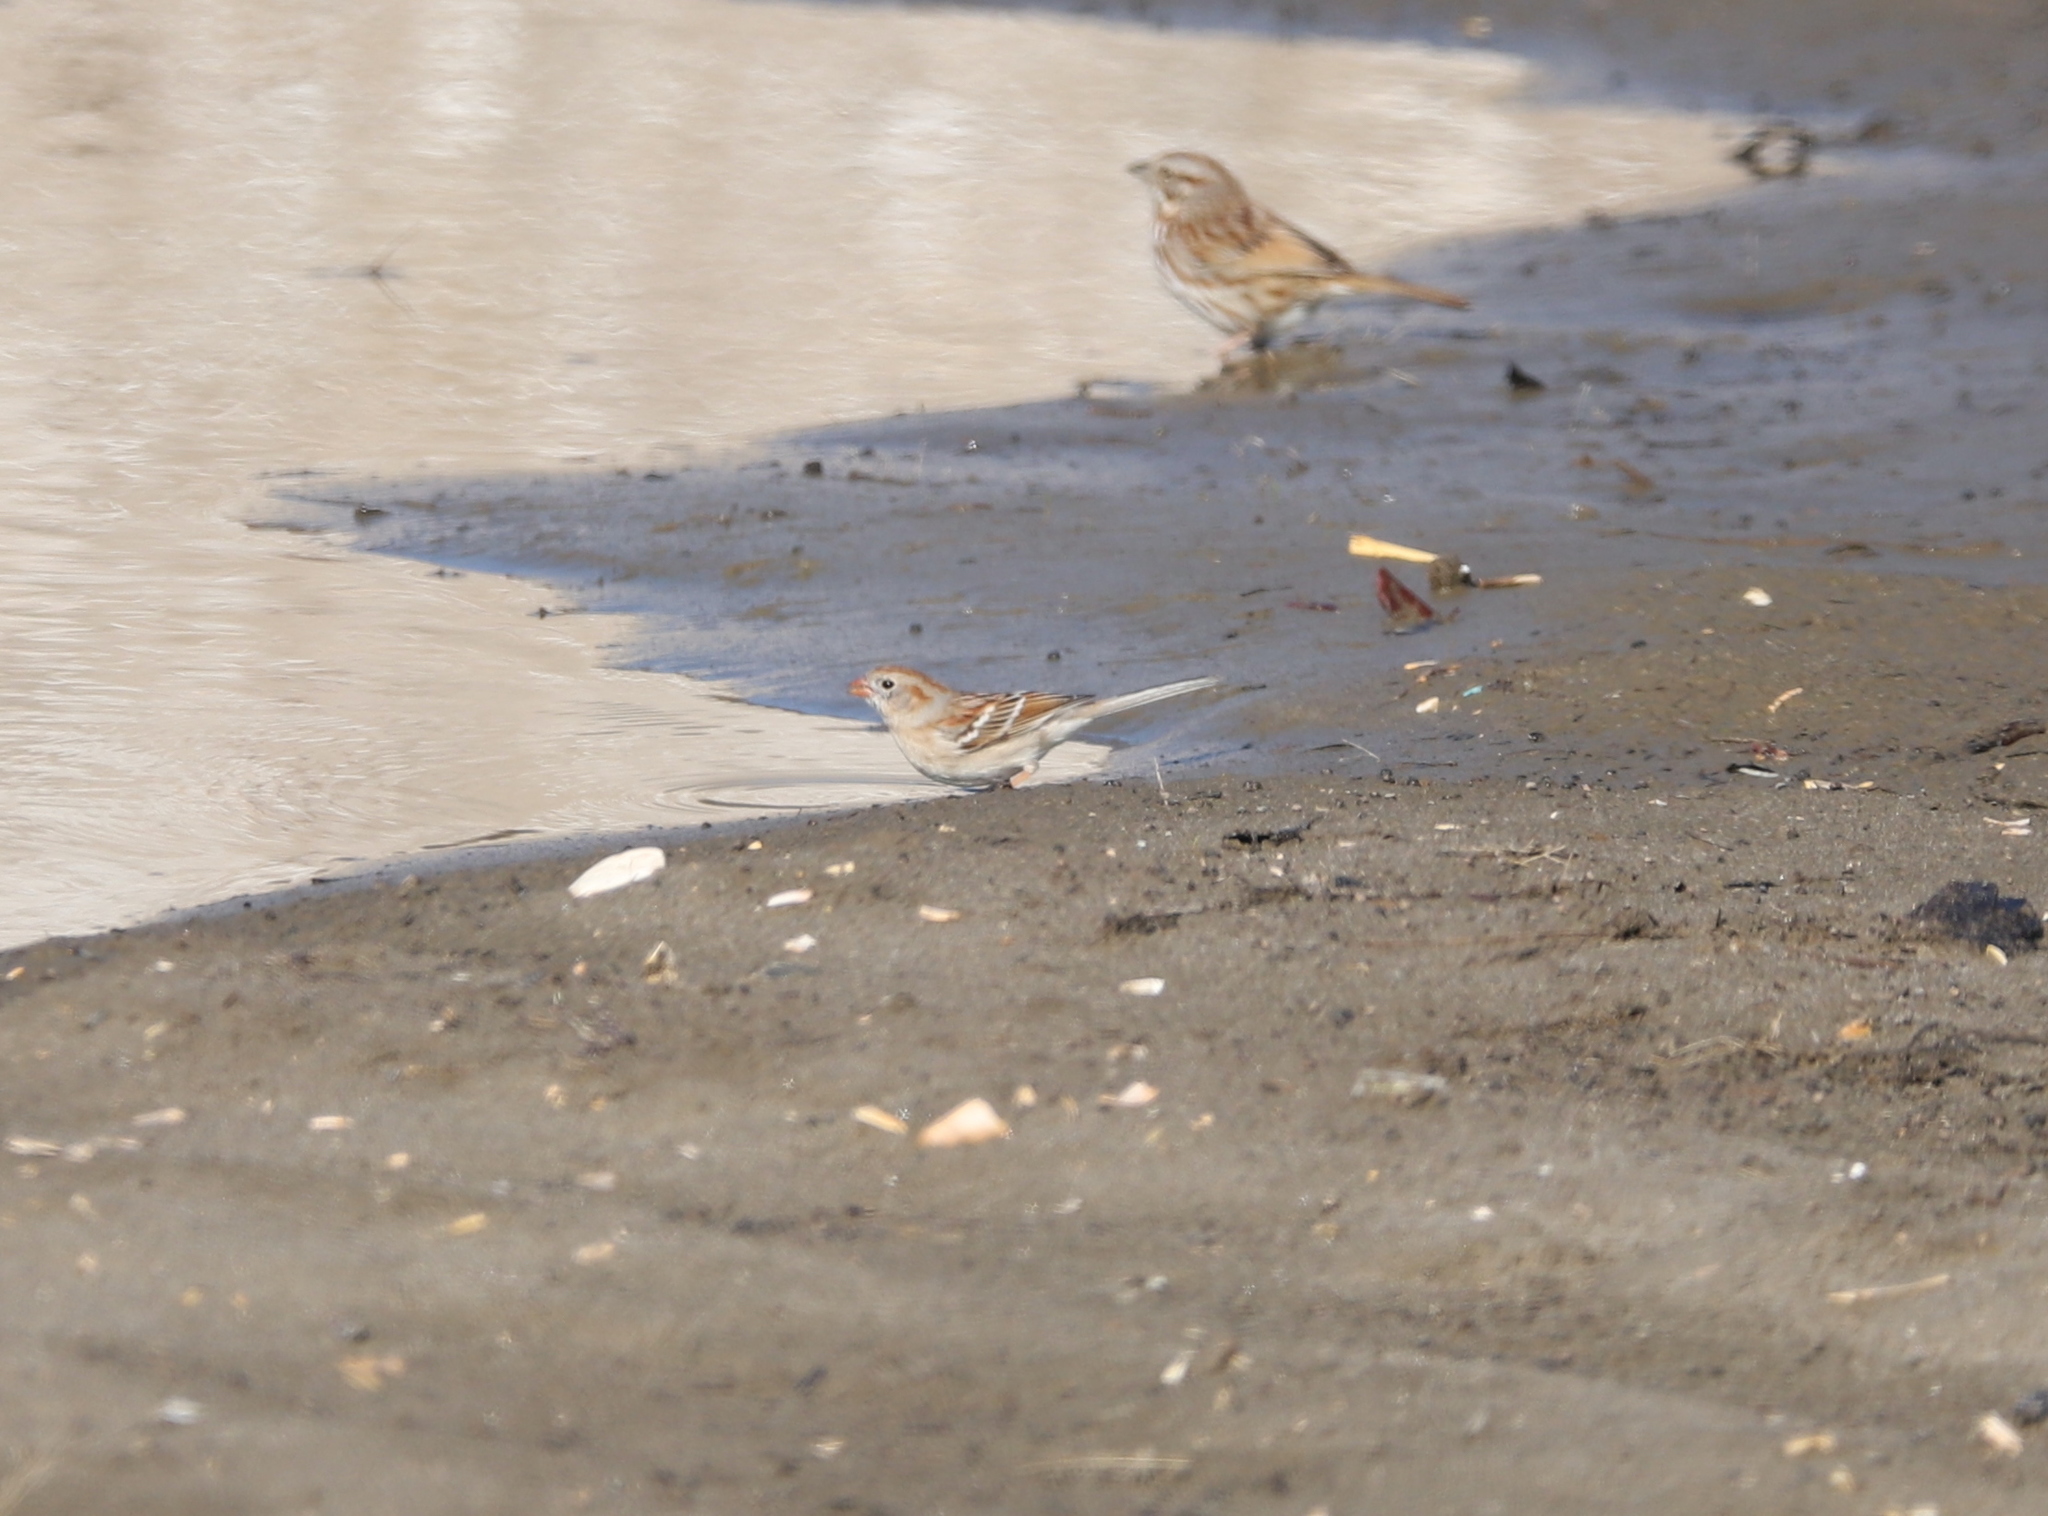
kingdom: Animalia
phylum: Chordata
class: Aves
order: Passeriformes
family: Passerellidae
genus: Spizella
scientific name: Spizella pusilla
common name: Field sparrow
